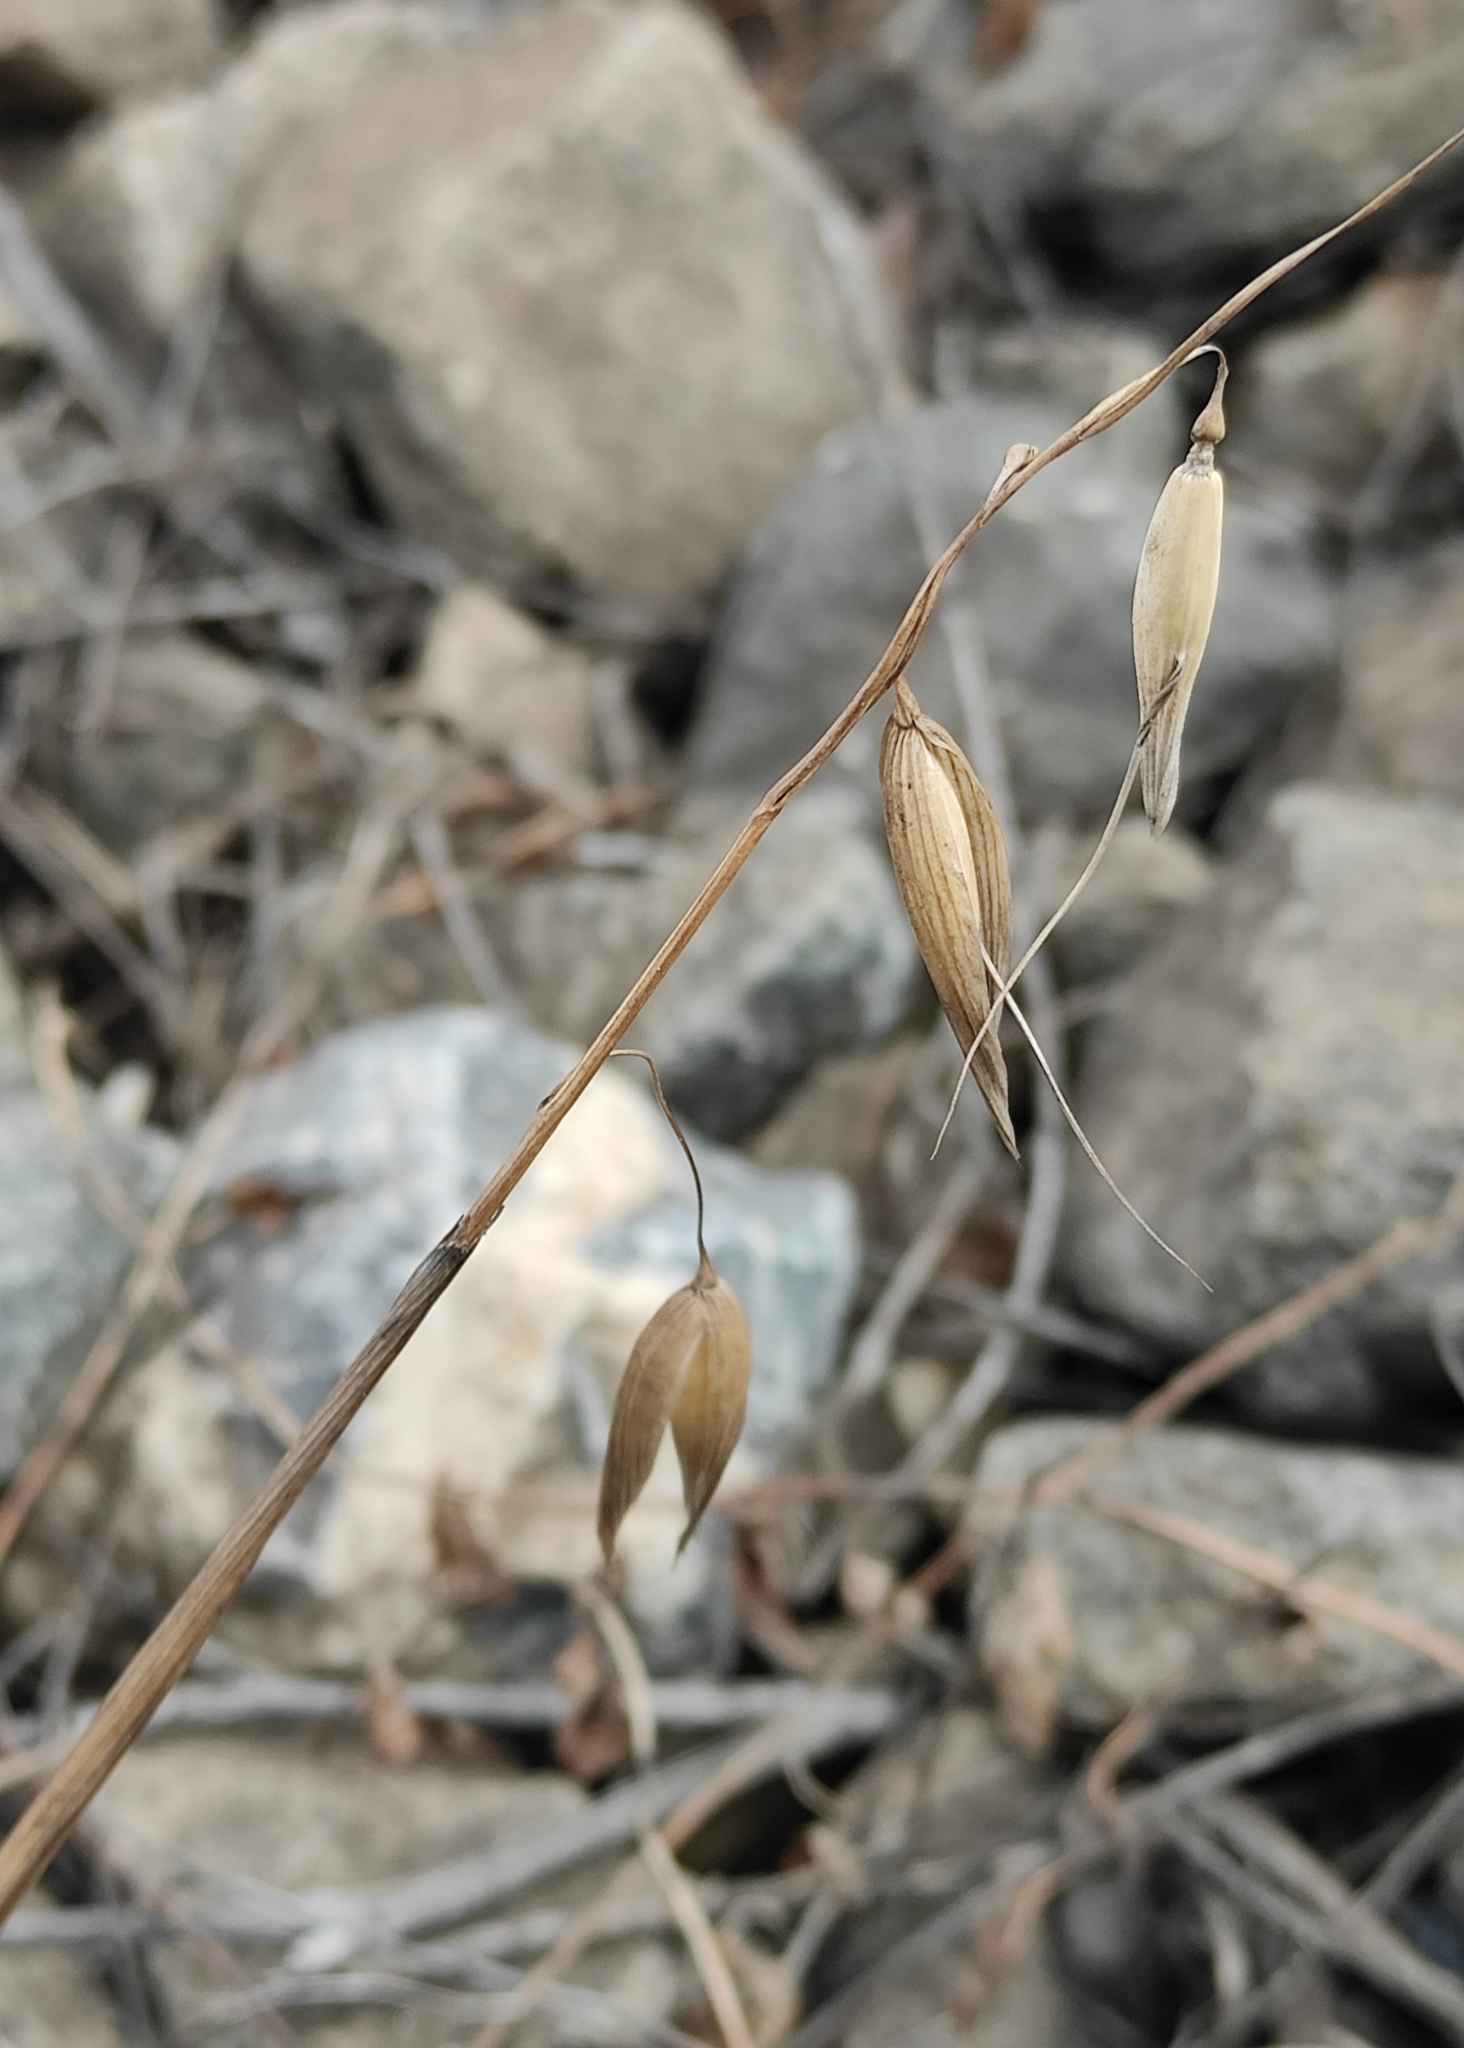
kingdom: Plantae
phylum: Tracheophyta
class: Liliopsida
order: Poales
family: Poaceae
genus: Avena
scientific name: Avena fatua
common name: Wild oat
